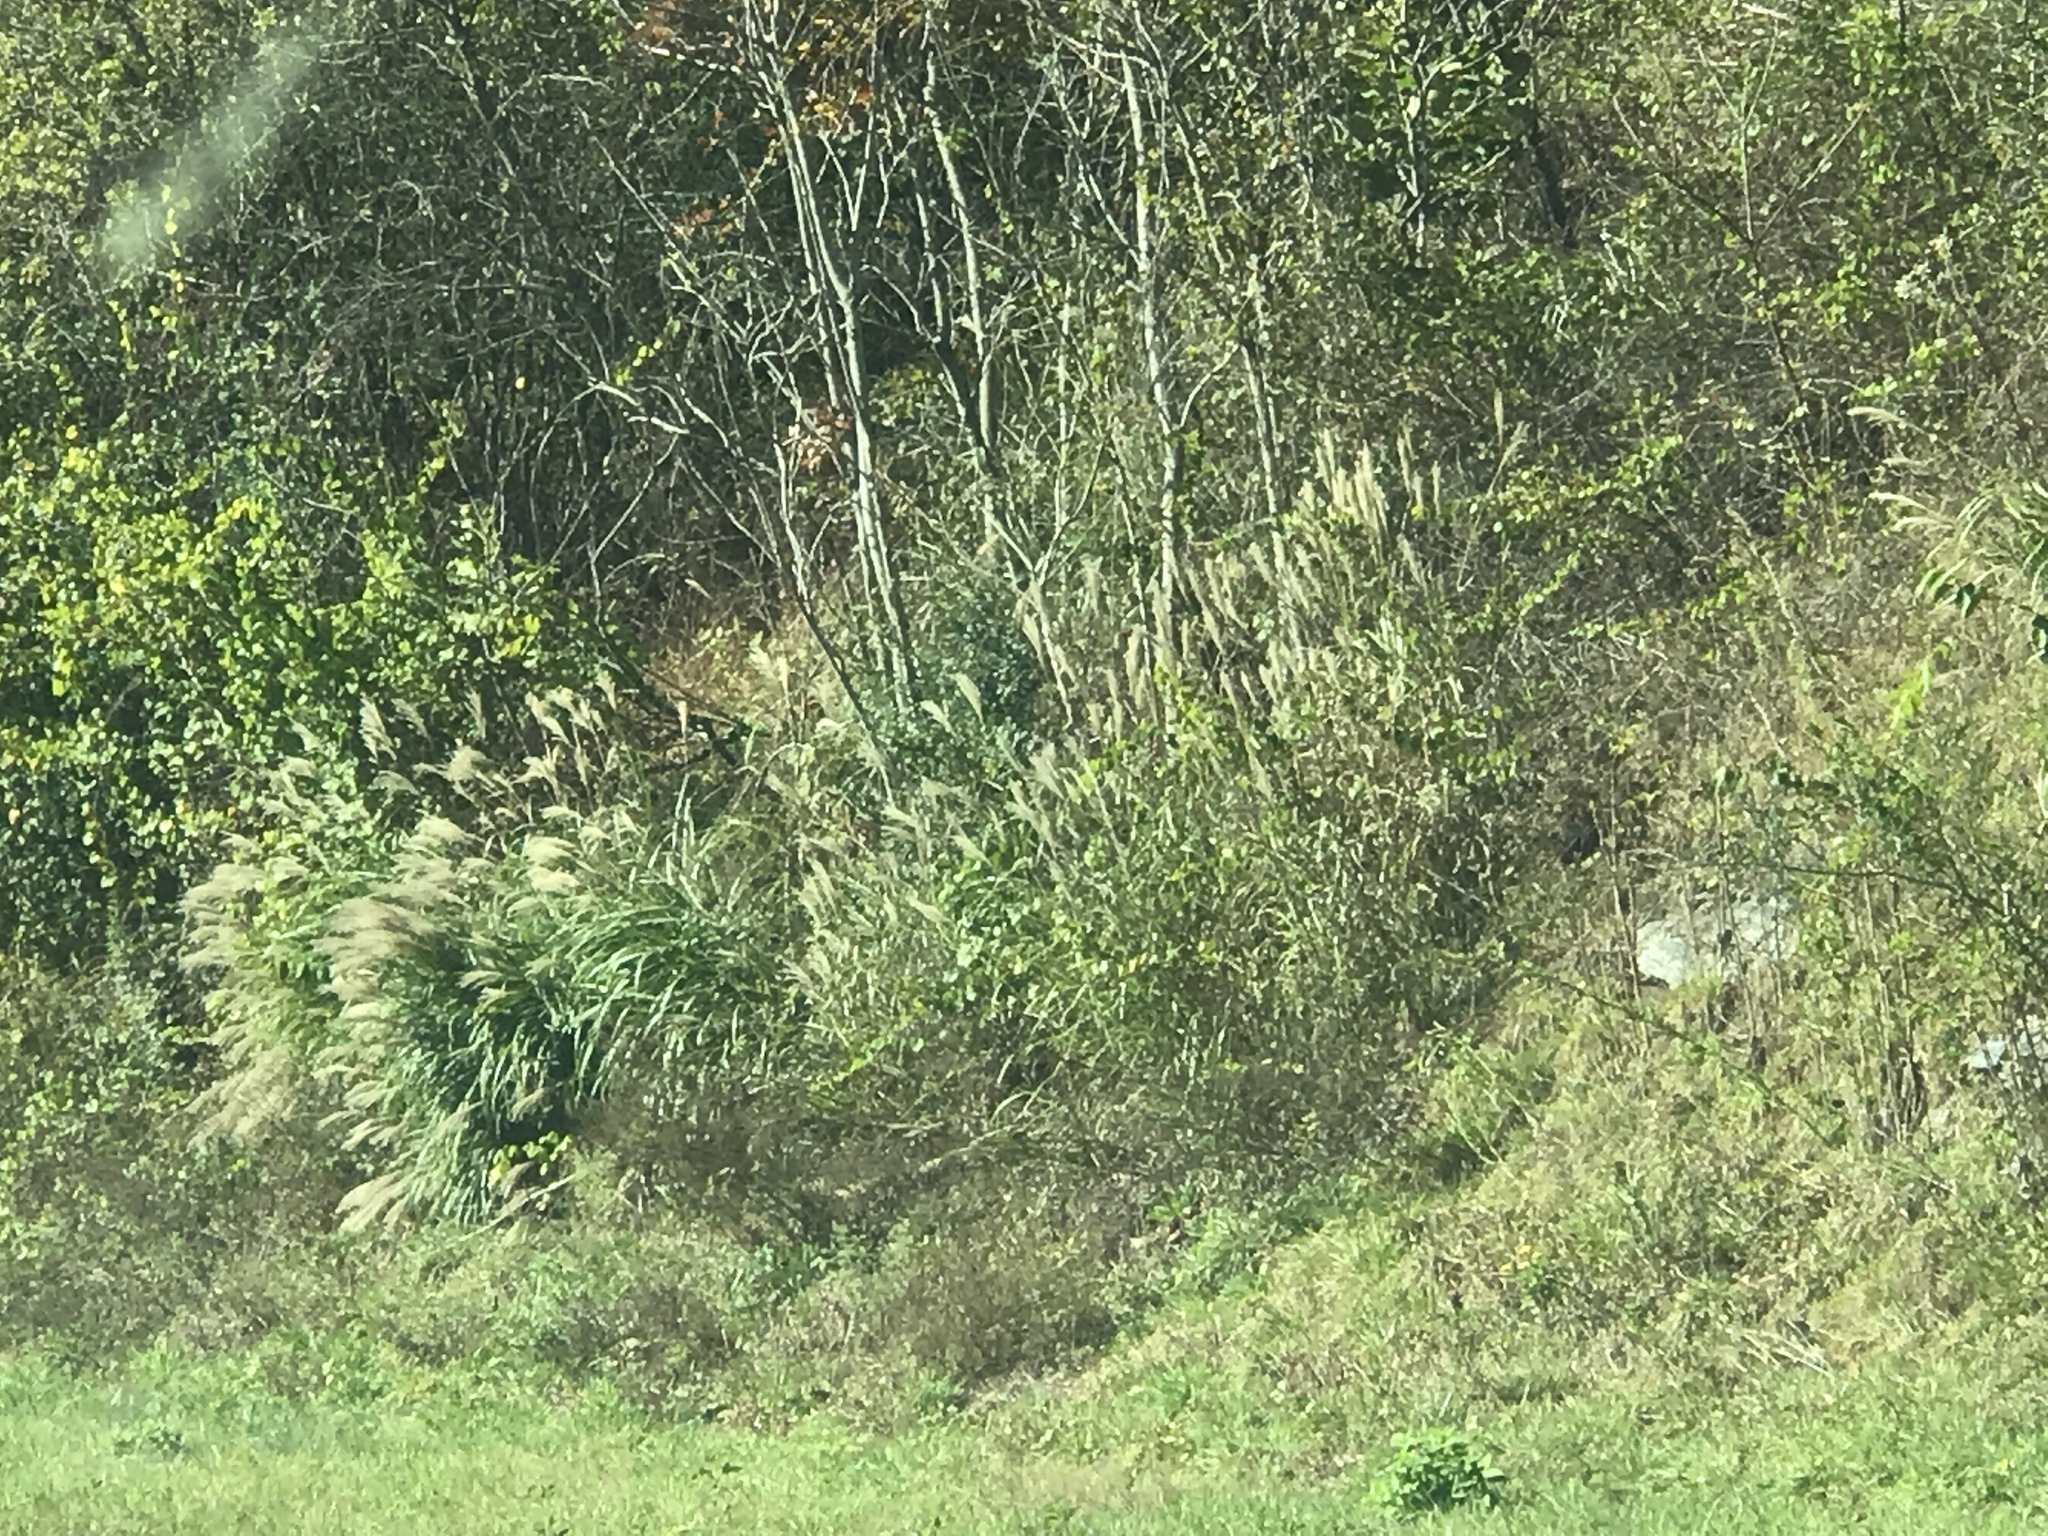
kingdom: Plantae
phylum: Tracheophyta
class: Liliopsida
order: Poales
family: Poaceae
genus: Miscanthus
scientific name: Miscanthus sinensis
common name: Chinese silvergrass
